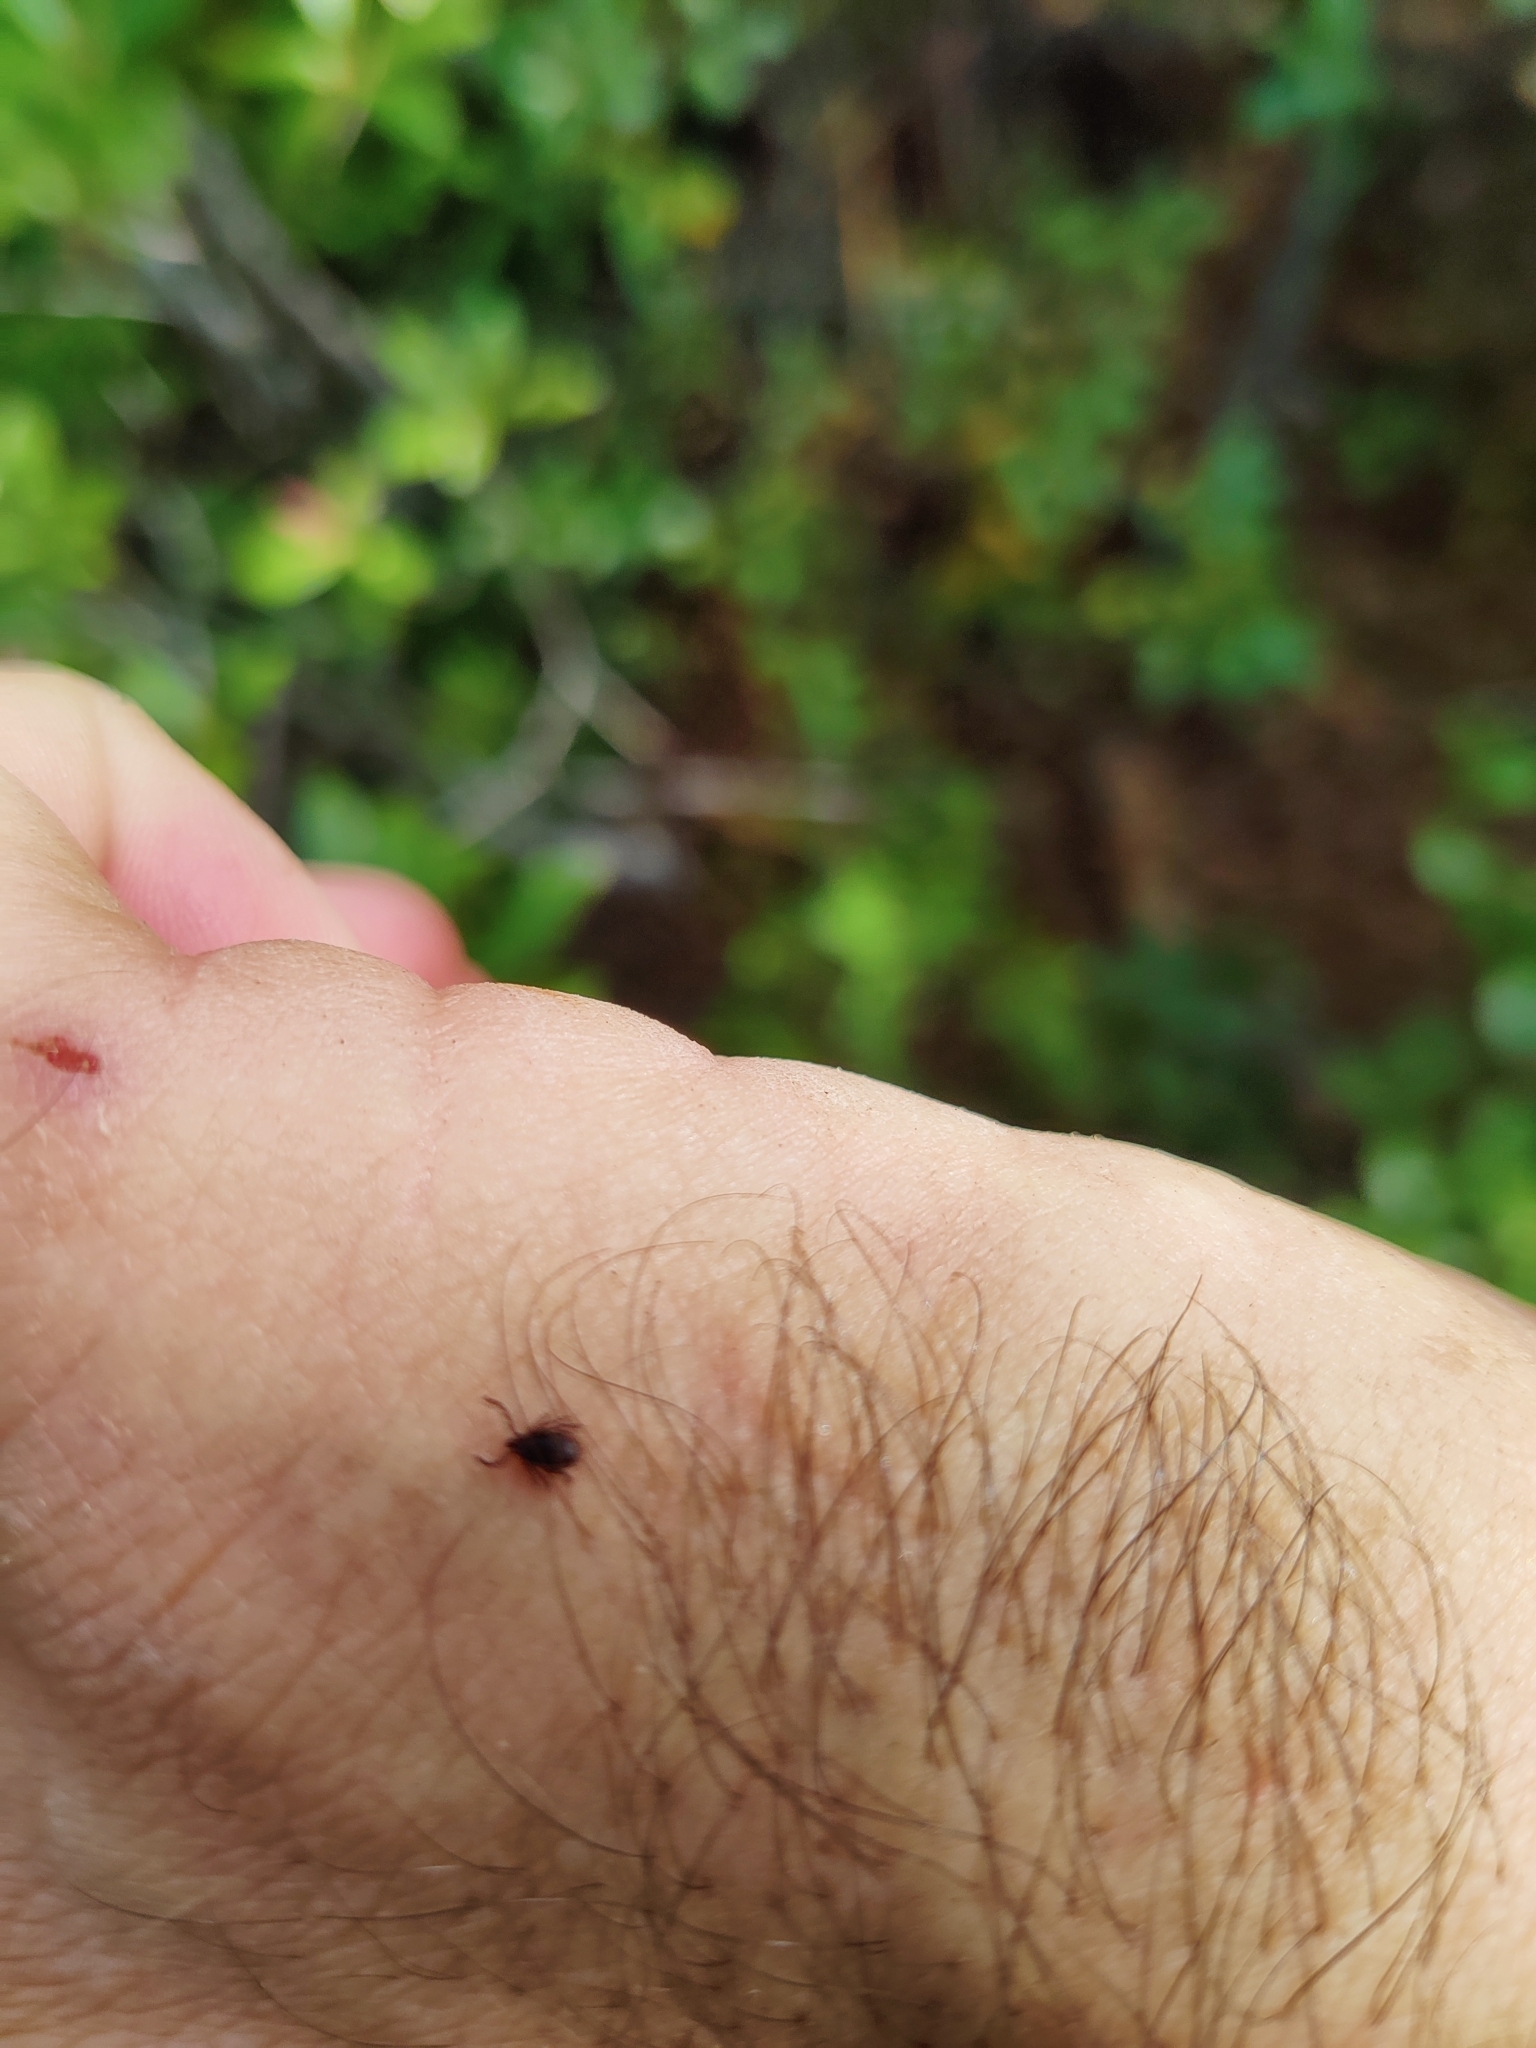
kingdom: Animalia
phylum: Arthropoda
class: Arachnida
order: Ixodida
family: Ixodidae
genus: Ixodes
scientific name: Ixodes scapularis
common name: Black legged tick
